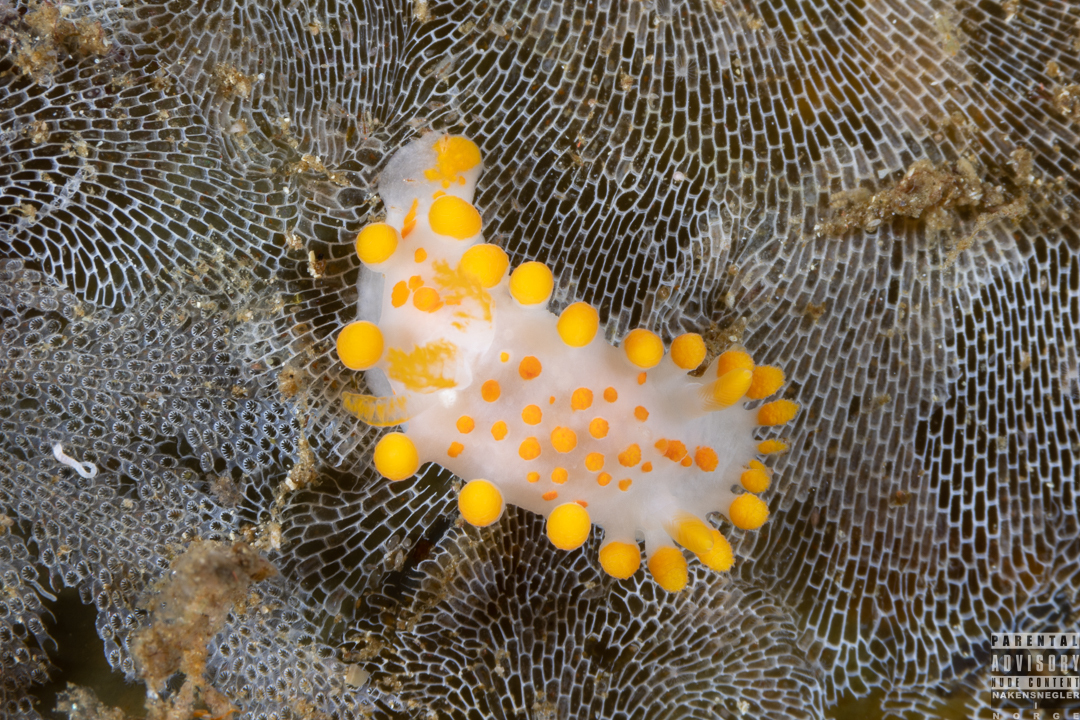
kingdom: Animalia
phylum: Mollusca
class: Gastropoda
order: Nudibranchia
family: Polyceridae
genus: Limacia
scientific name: Limacia clavigera
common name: Orange-clubbed sea slug
